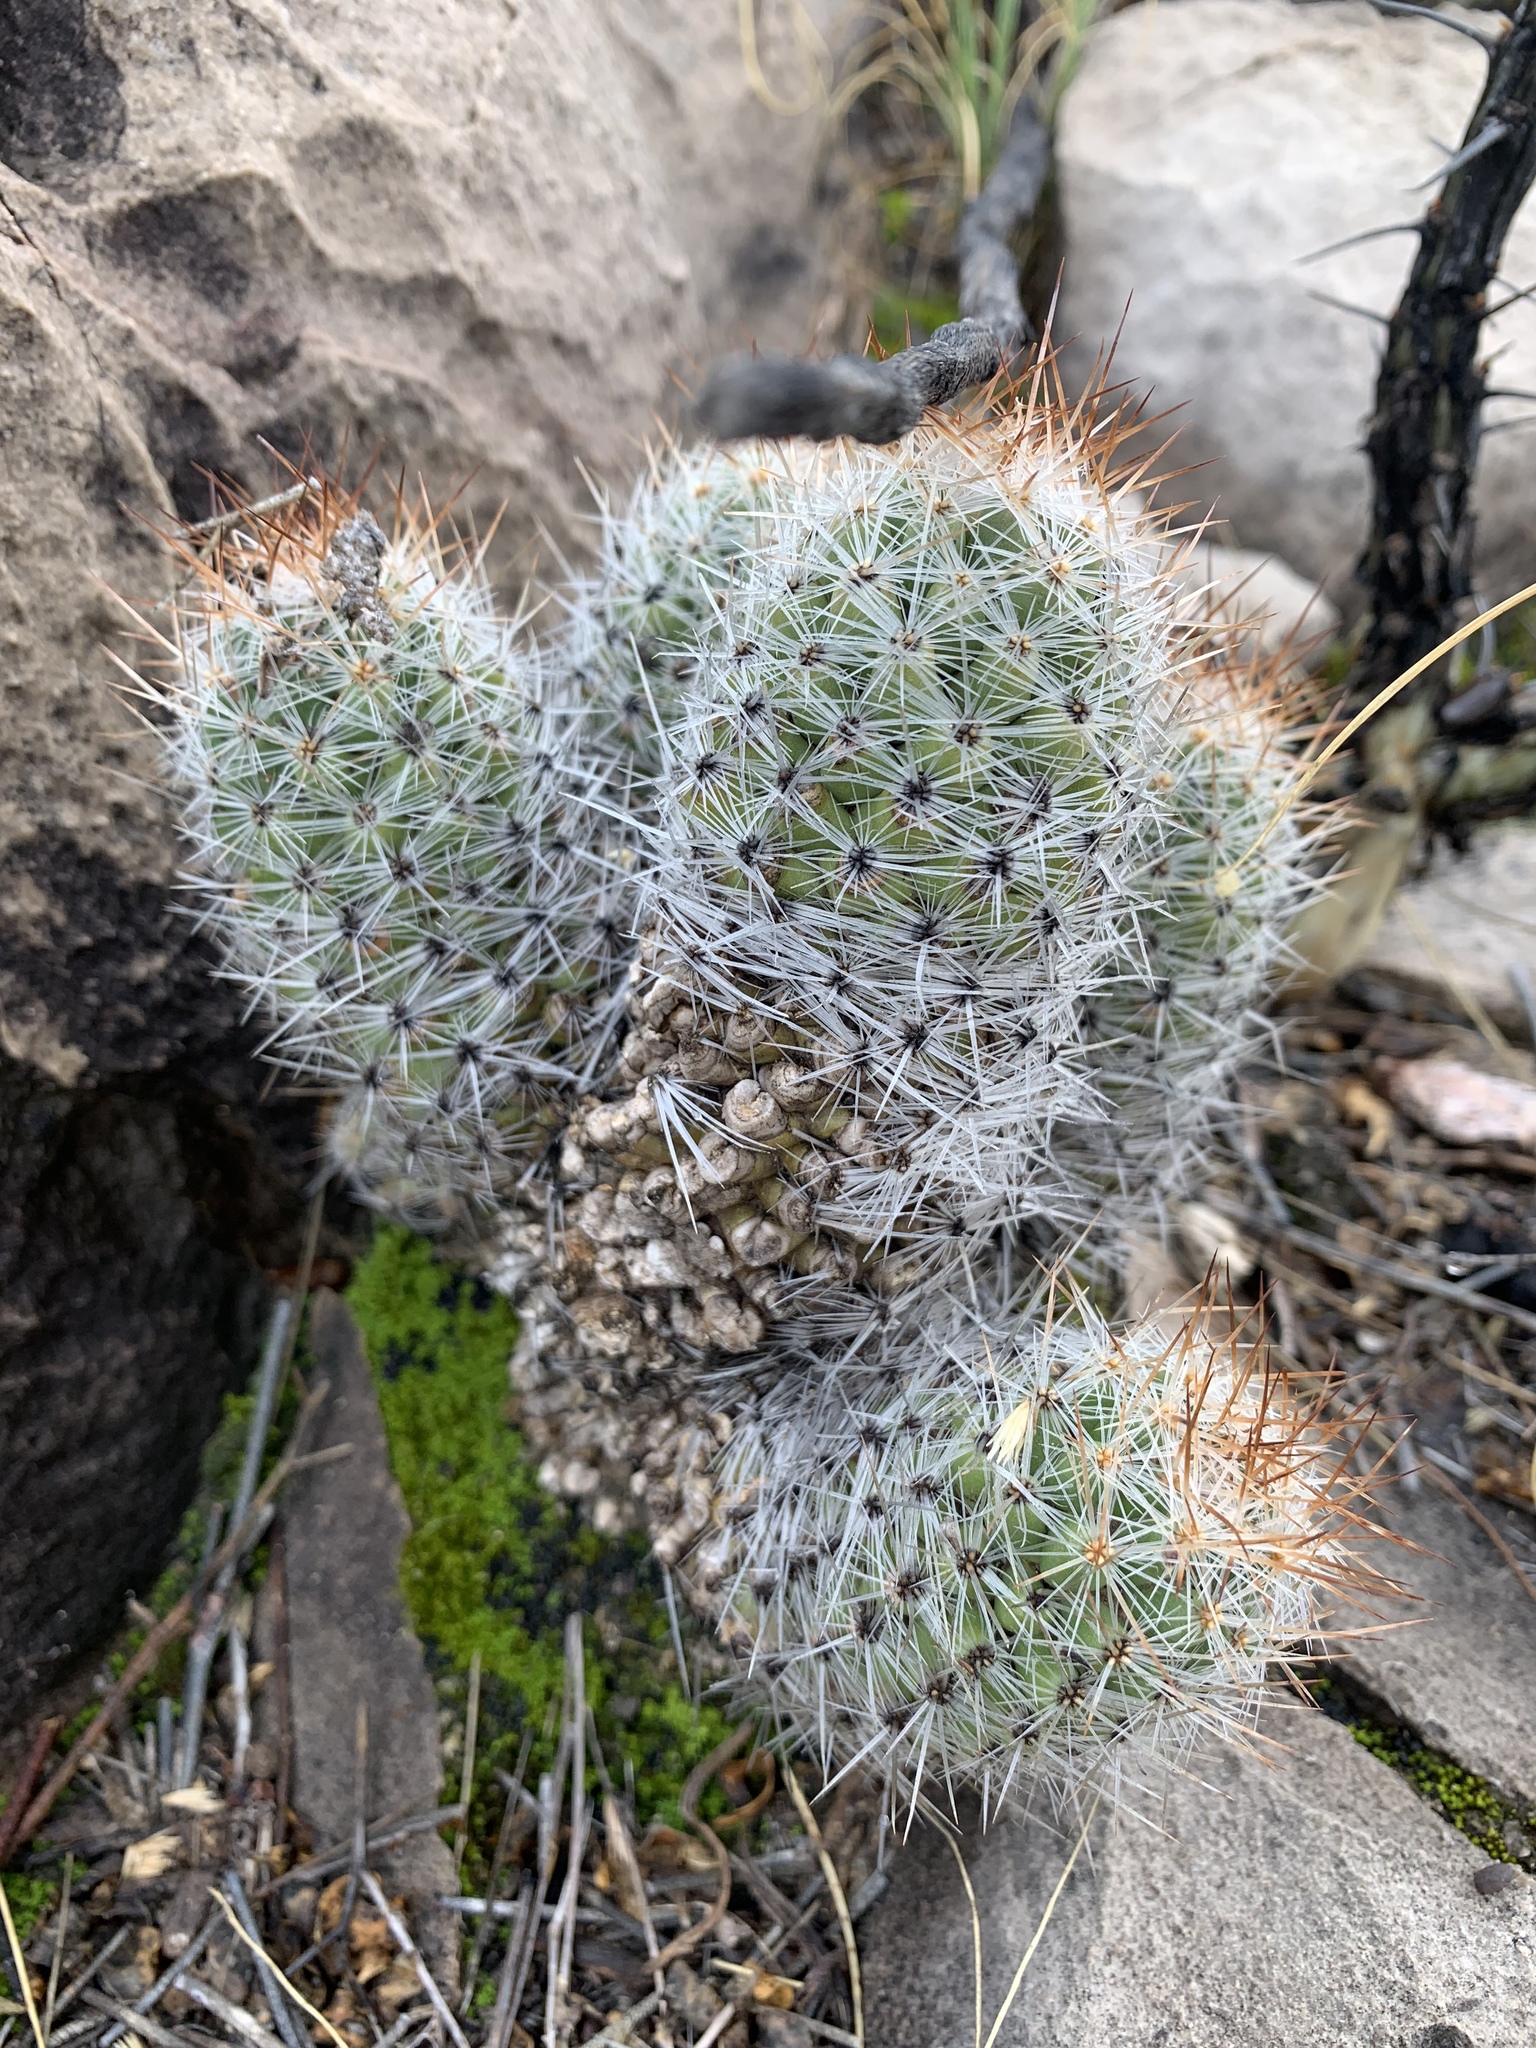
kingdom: Plantae
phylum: Tracheophyta
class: Magnoliopsida
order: Caryophyllales
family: Cactaceae
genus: Pelecyphora
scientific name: Pelecyphora tuberculosa
